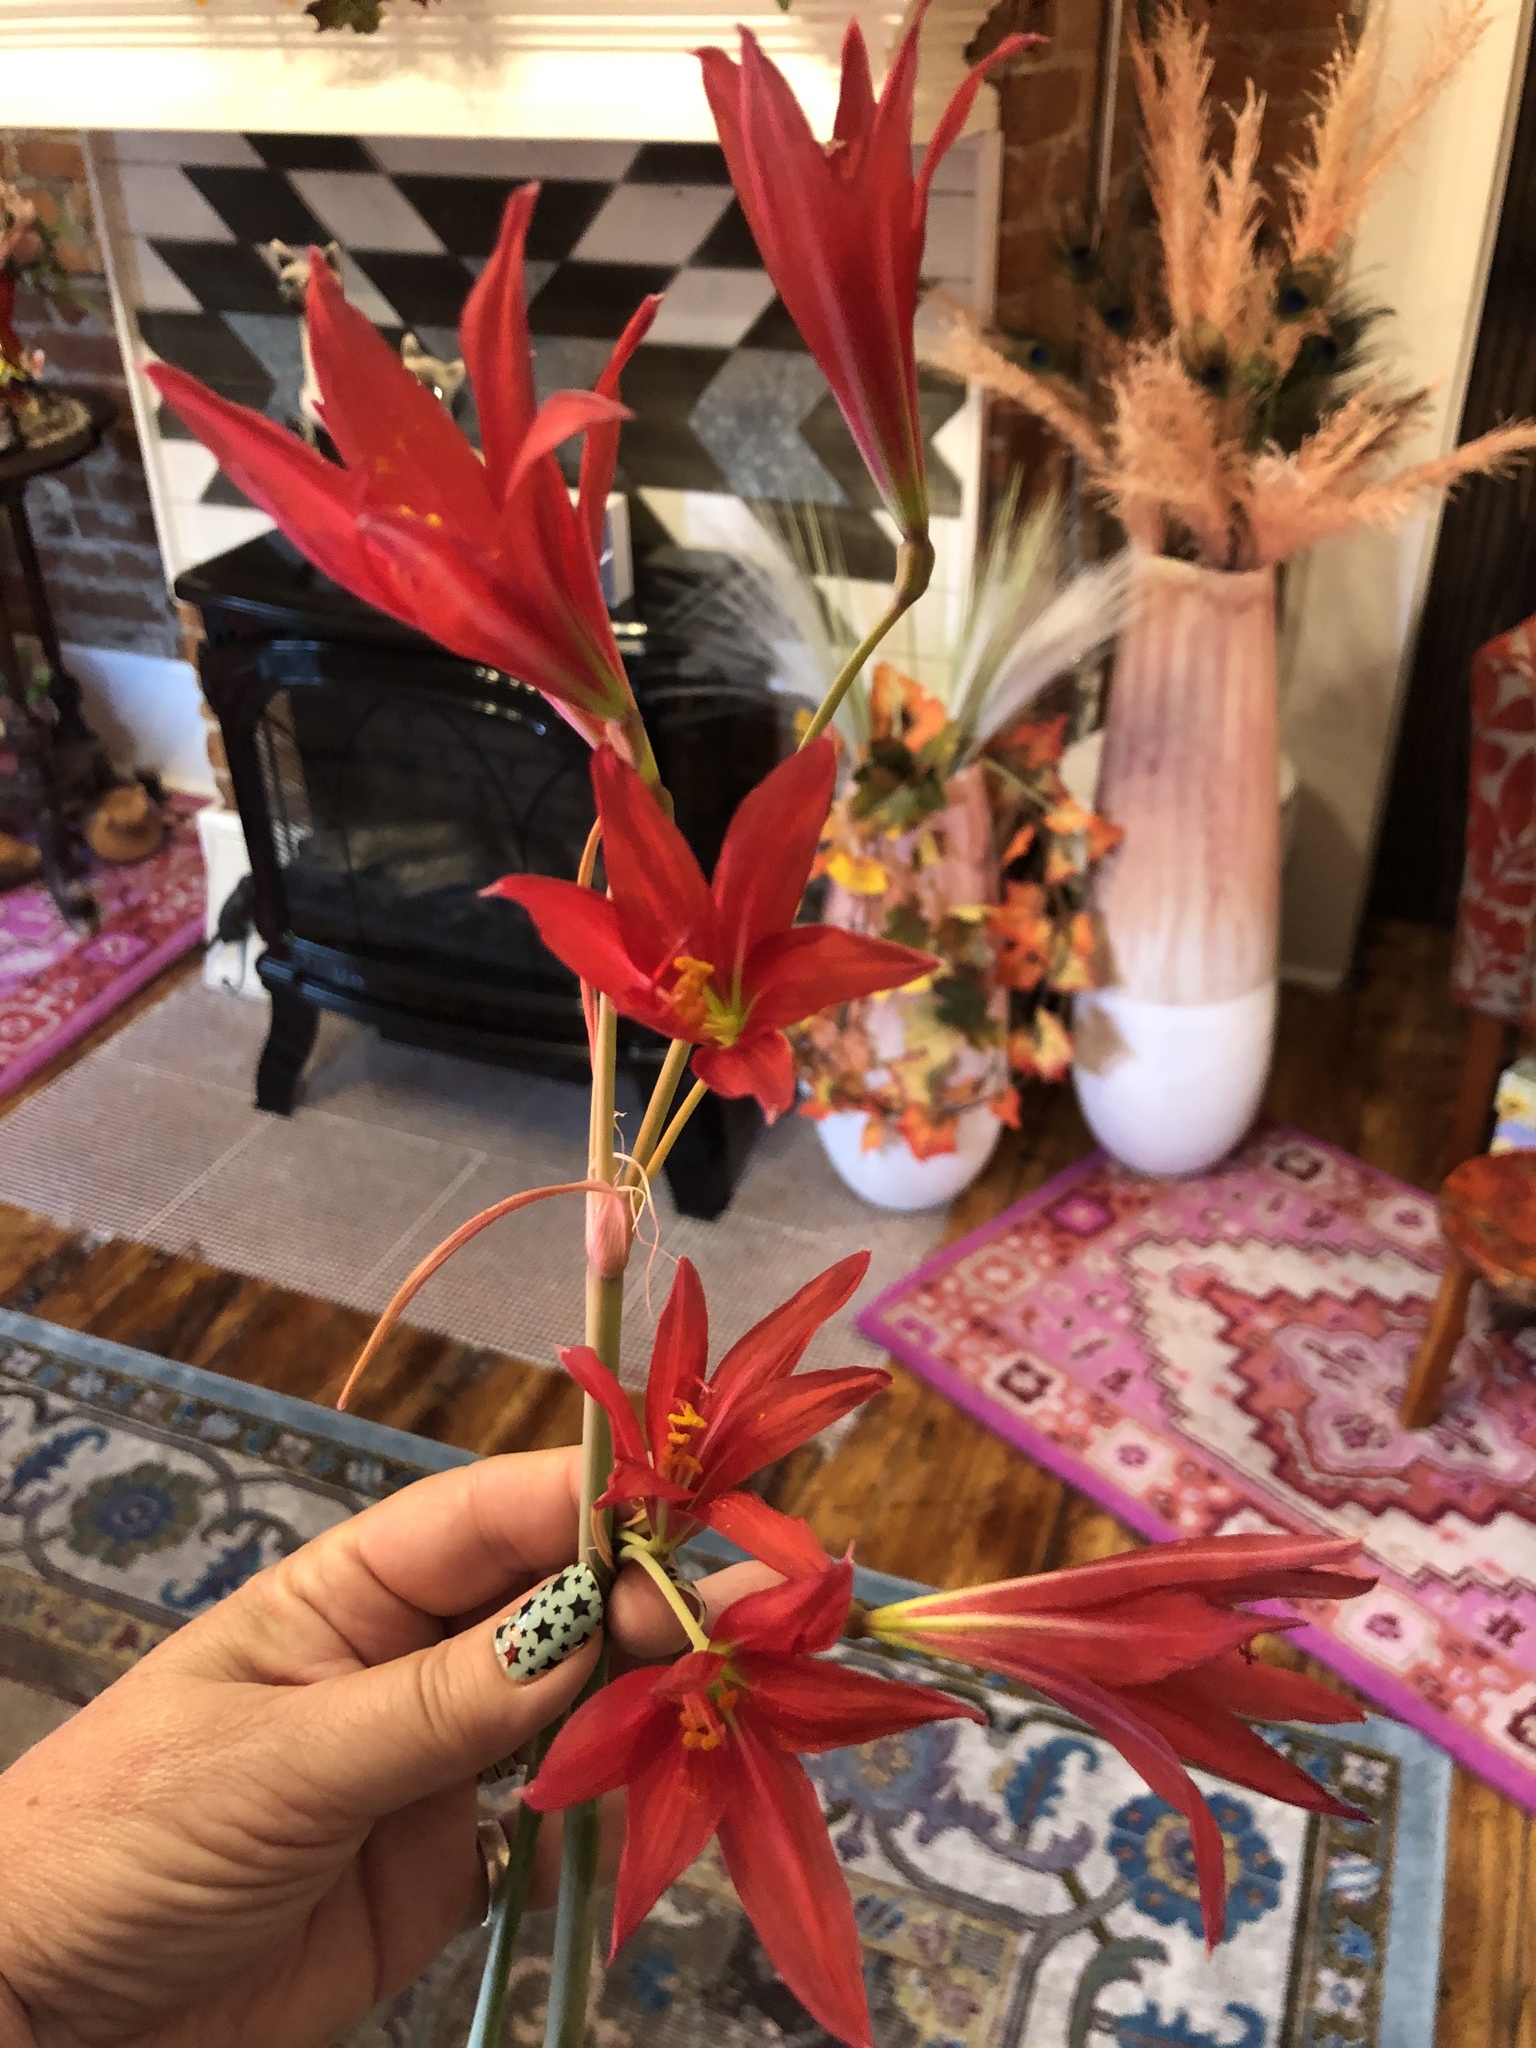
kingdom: Plantae
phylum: Tracheophyta
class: Liliopsida
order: Asparagales
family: Amaryllidaceae
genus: Zephyranthes
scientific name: Zephyranthes bifida
